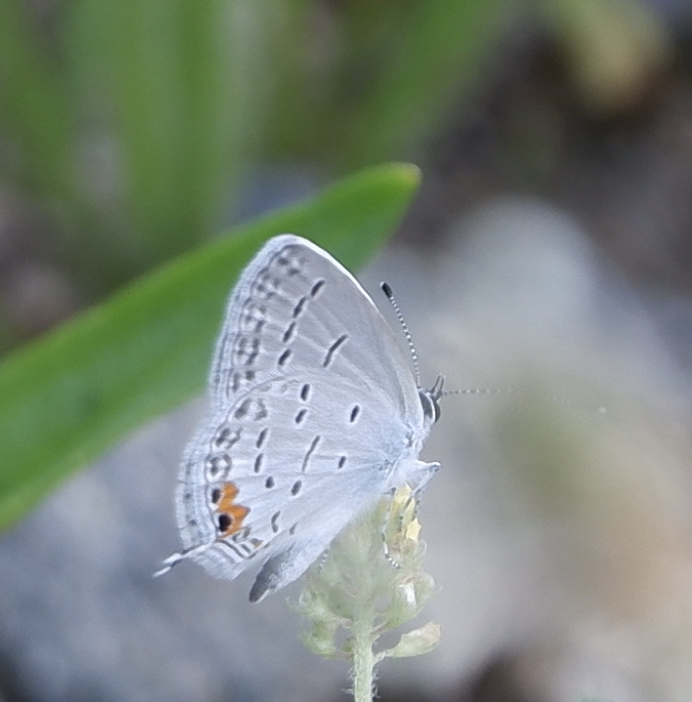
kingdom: Animalia
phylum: Arthropoda
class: Insecta
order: Lepidoptera
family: Lycaenidae
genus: Elkalyce
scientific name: Elkalyce comyntas
